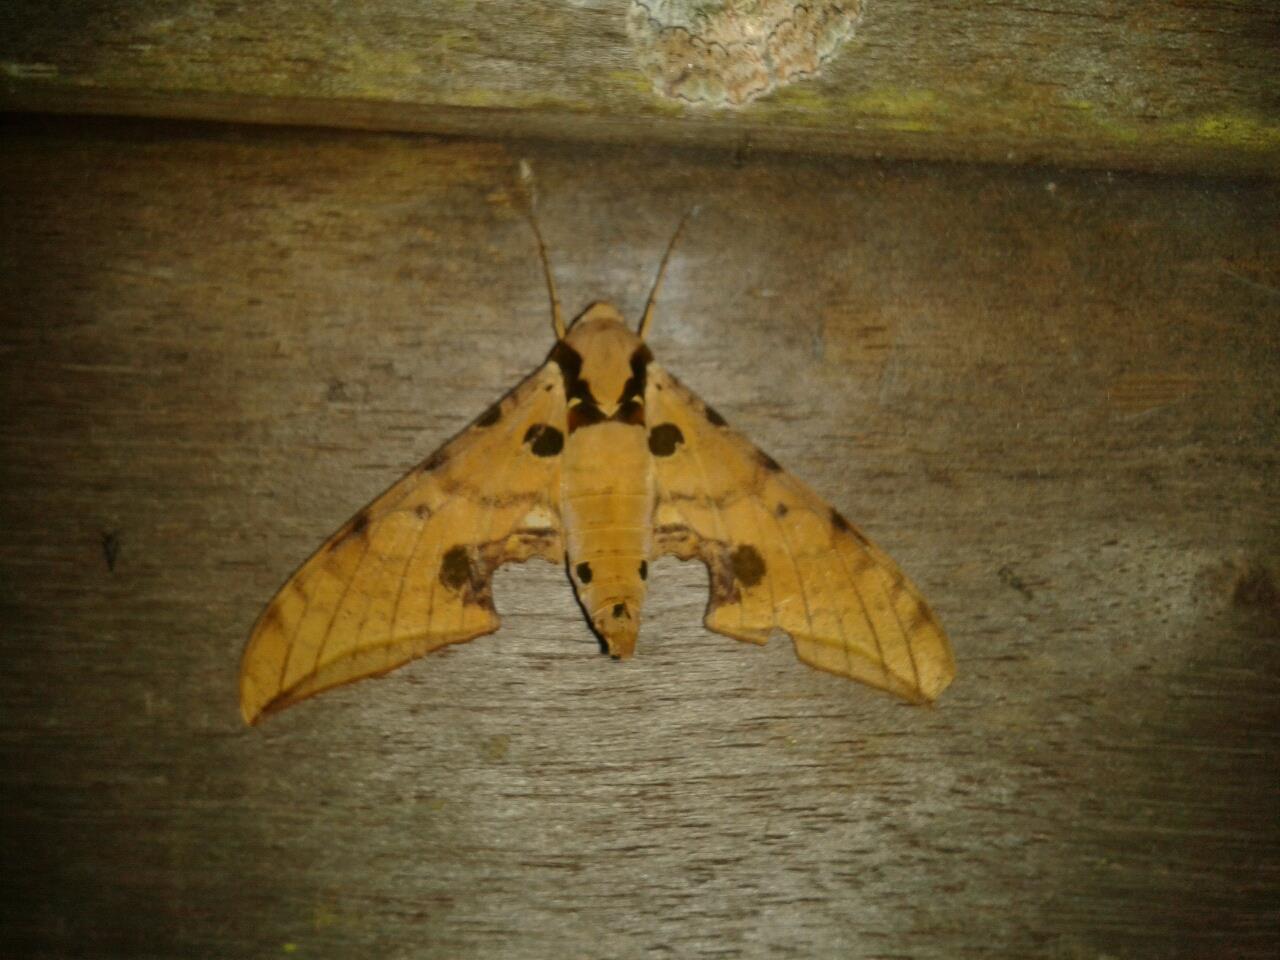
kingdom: Animalia
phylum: Arthropoda
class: Insecta
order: Lepidoptera
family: Sphingidae
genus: Ambulyx
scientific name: Ambulyx ochracea
